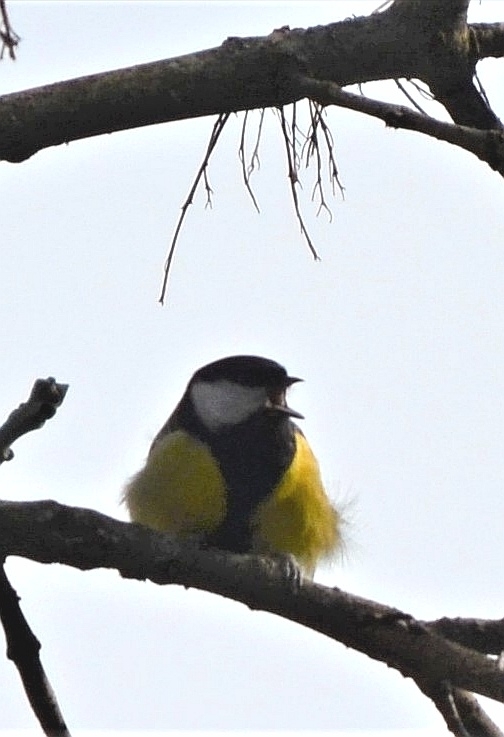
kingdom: Animalia
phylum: Chordata
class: Aves
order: Passeriformes
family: Paridae
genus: Parus
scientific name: Parus major
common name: Great tit
